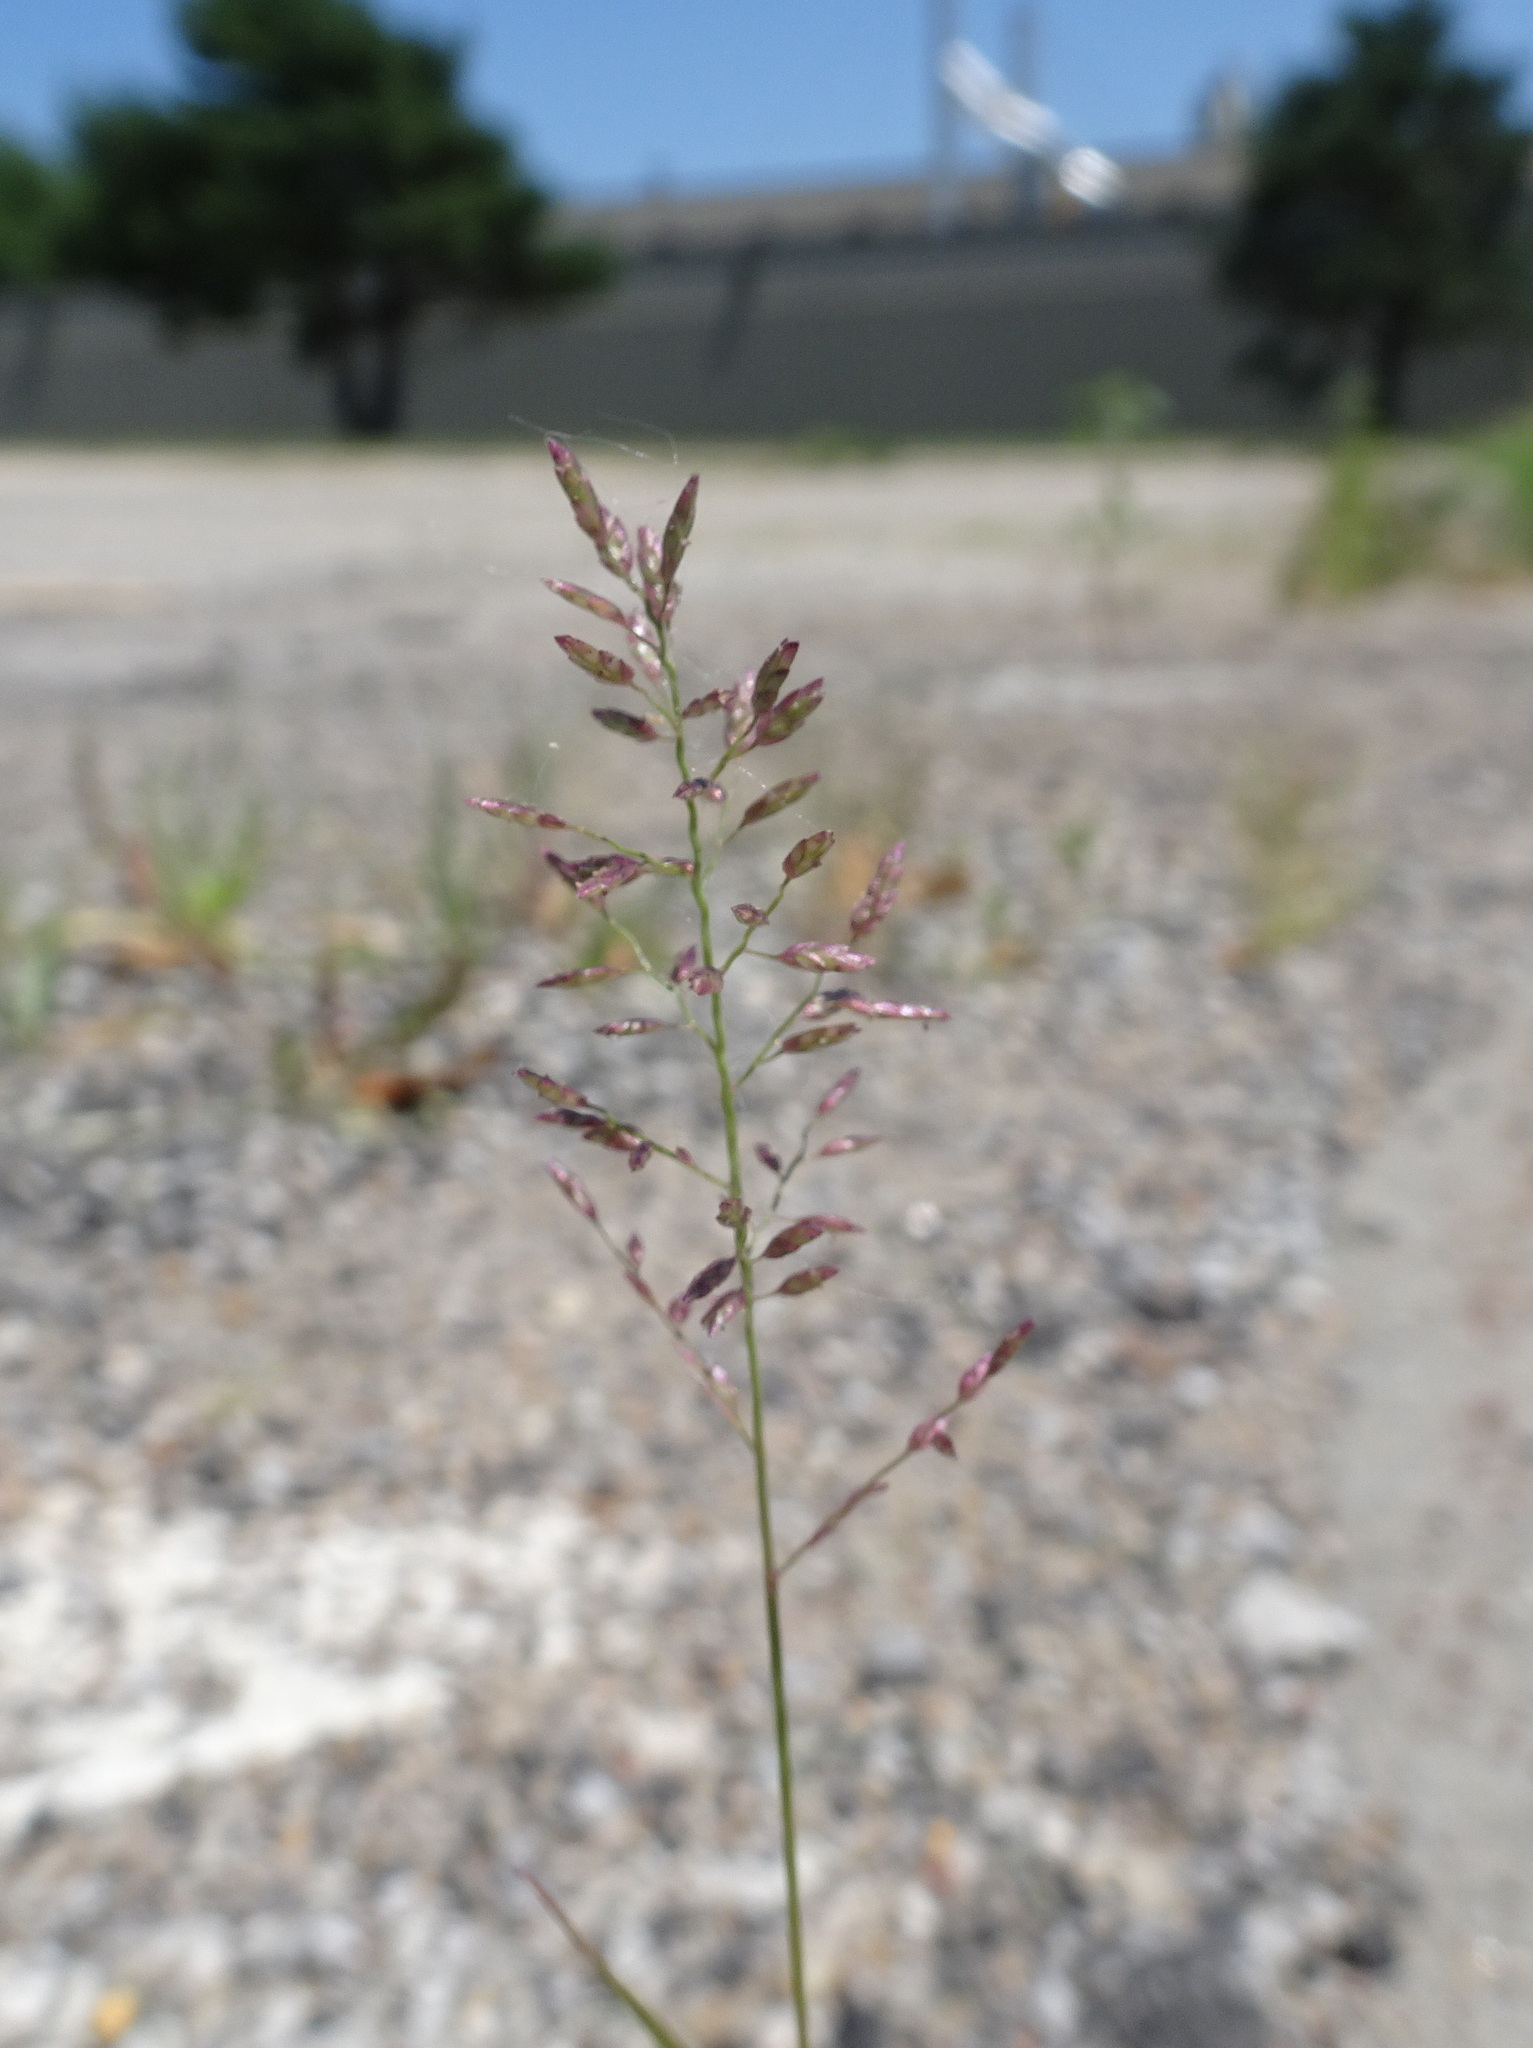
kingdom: Plantae
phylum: Tracheophyta
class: Liliopsida
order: Poales
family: Poaceae
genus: Eragrostis
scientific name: Eragrostis cilianensis
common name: Stinkgrass
